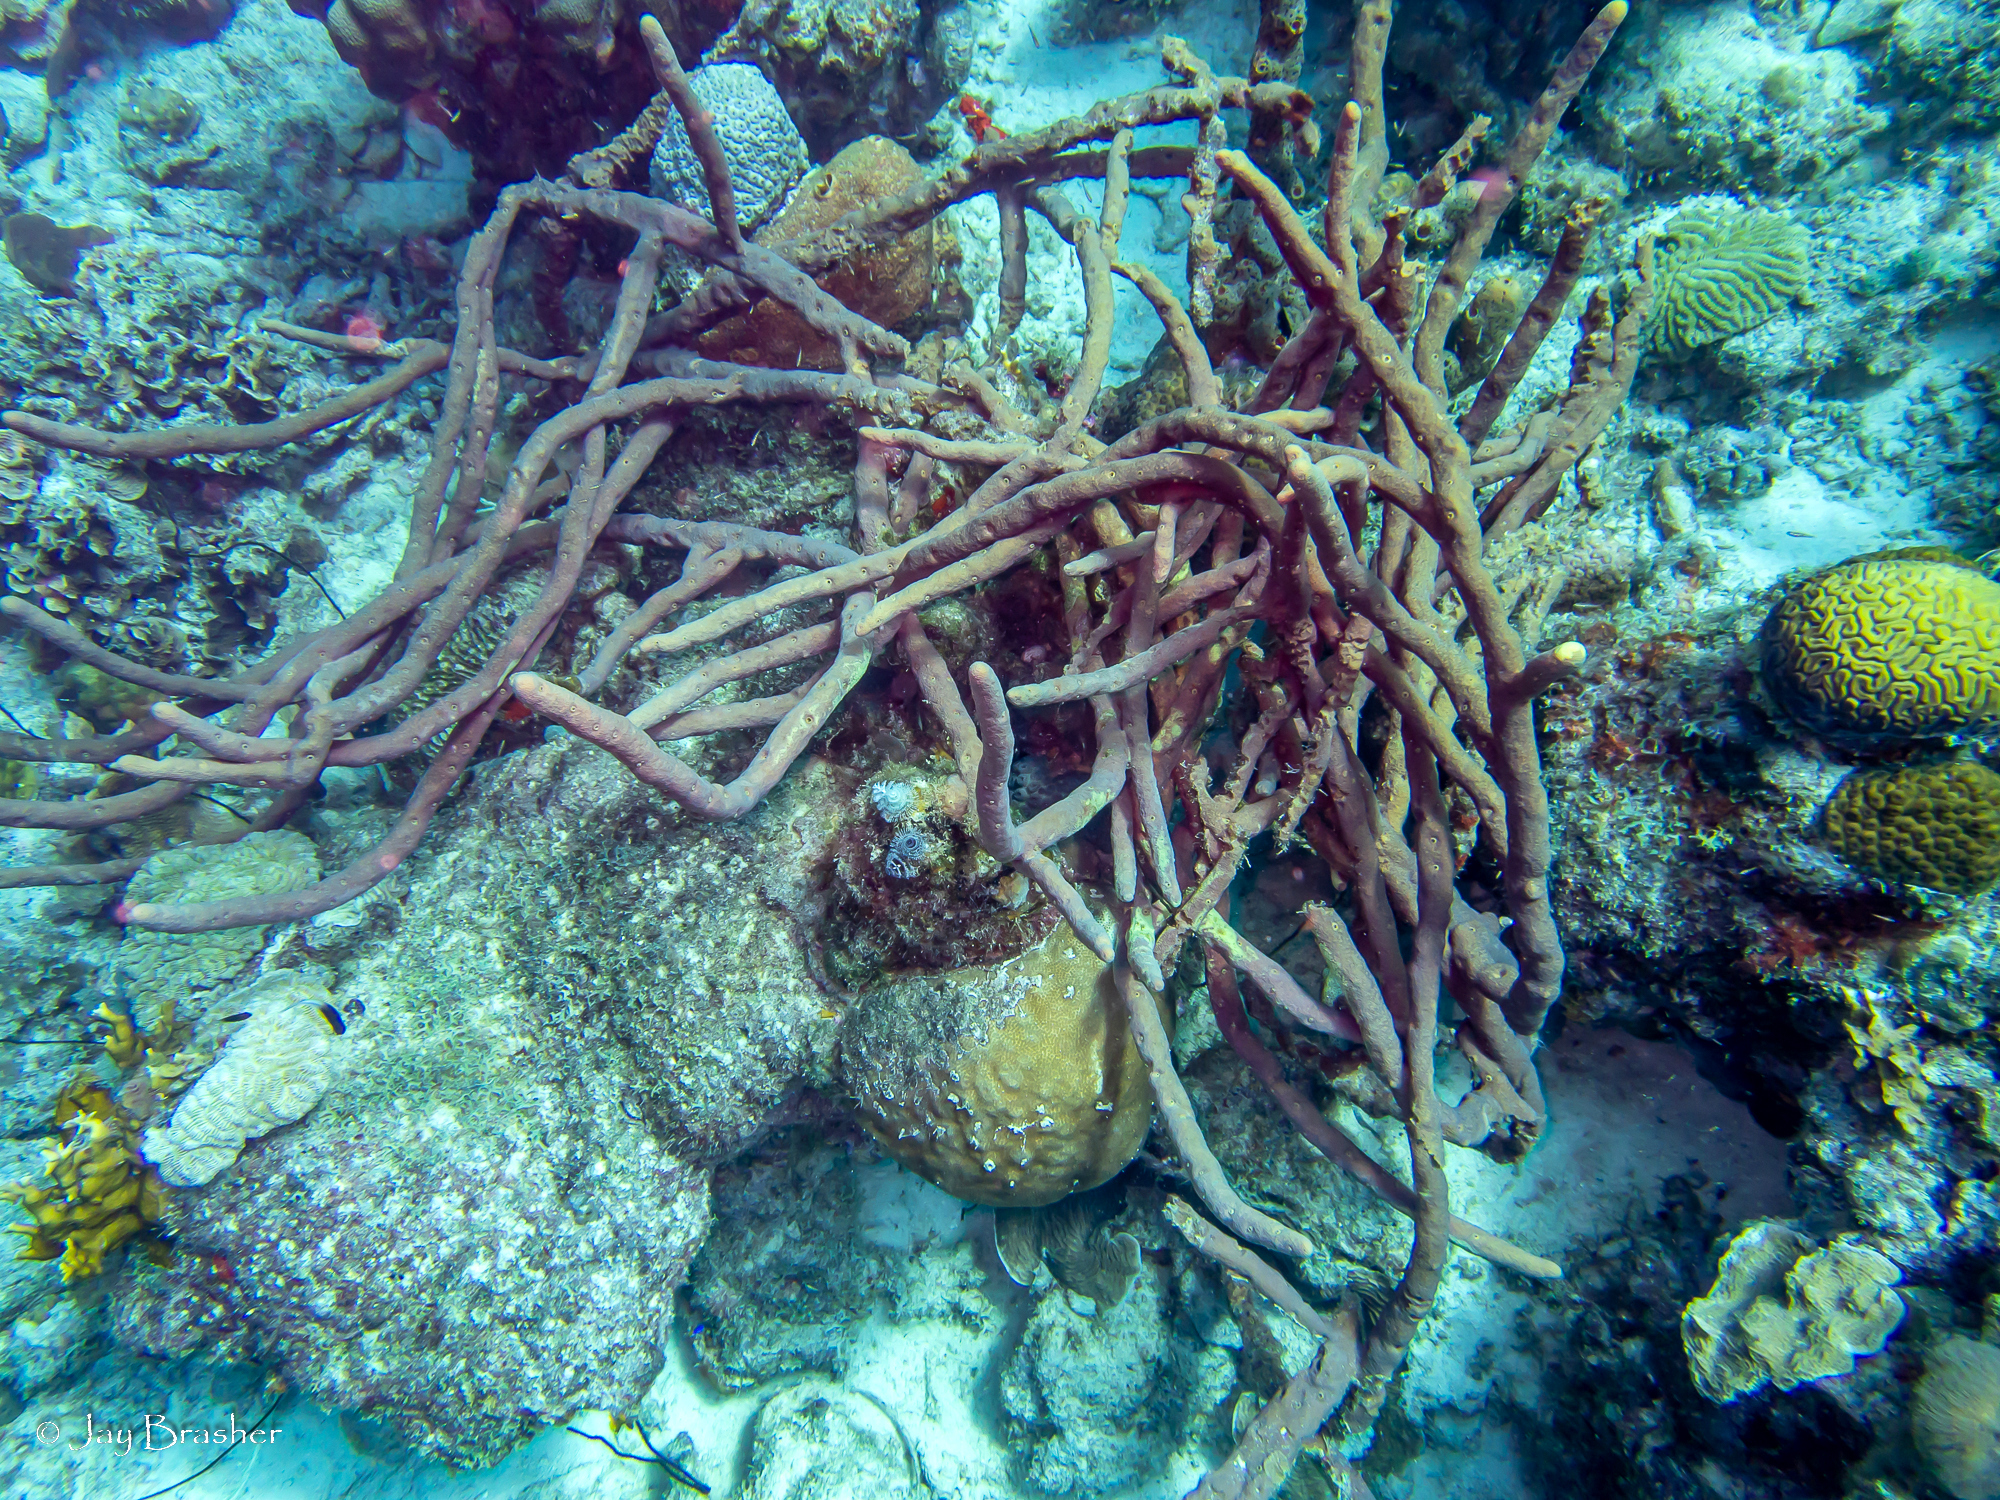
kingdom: Animalia
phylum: Porifera
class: Demospongiae
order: Verongiida
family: Aplysinidae
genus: Aplysina
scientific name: Aplysina cauliformis
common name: Branching candle sponge
